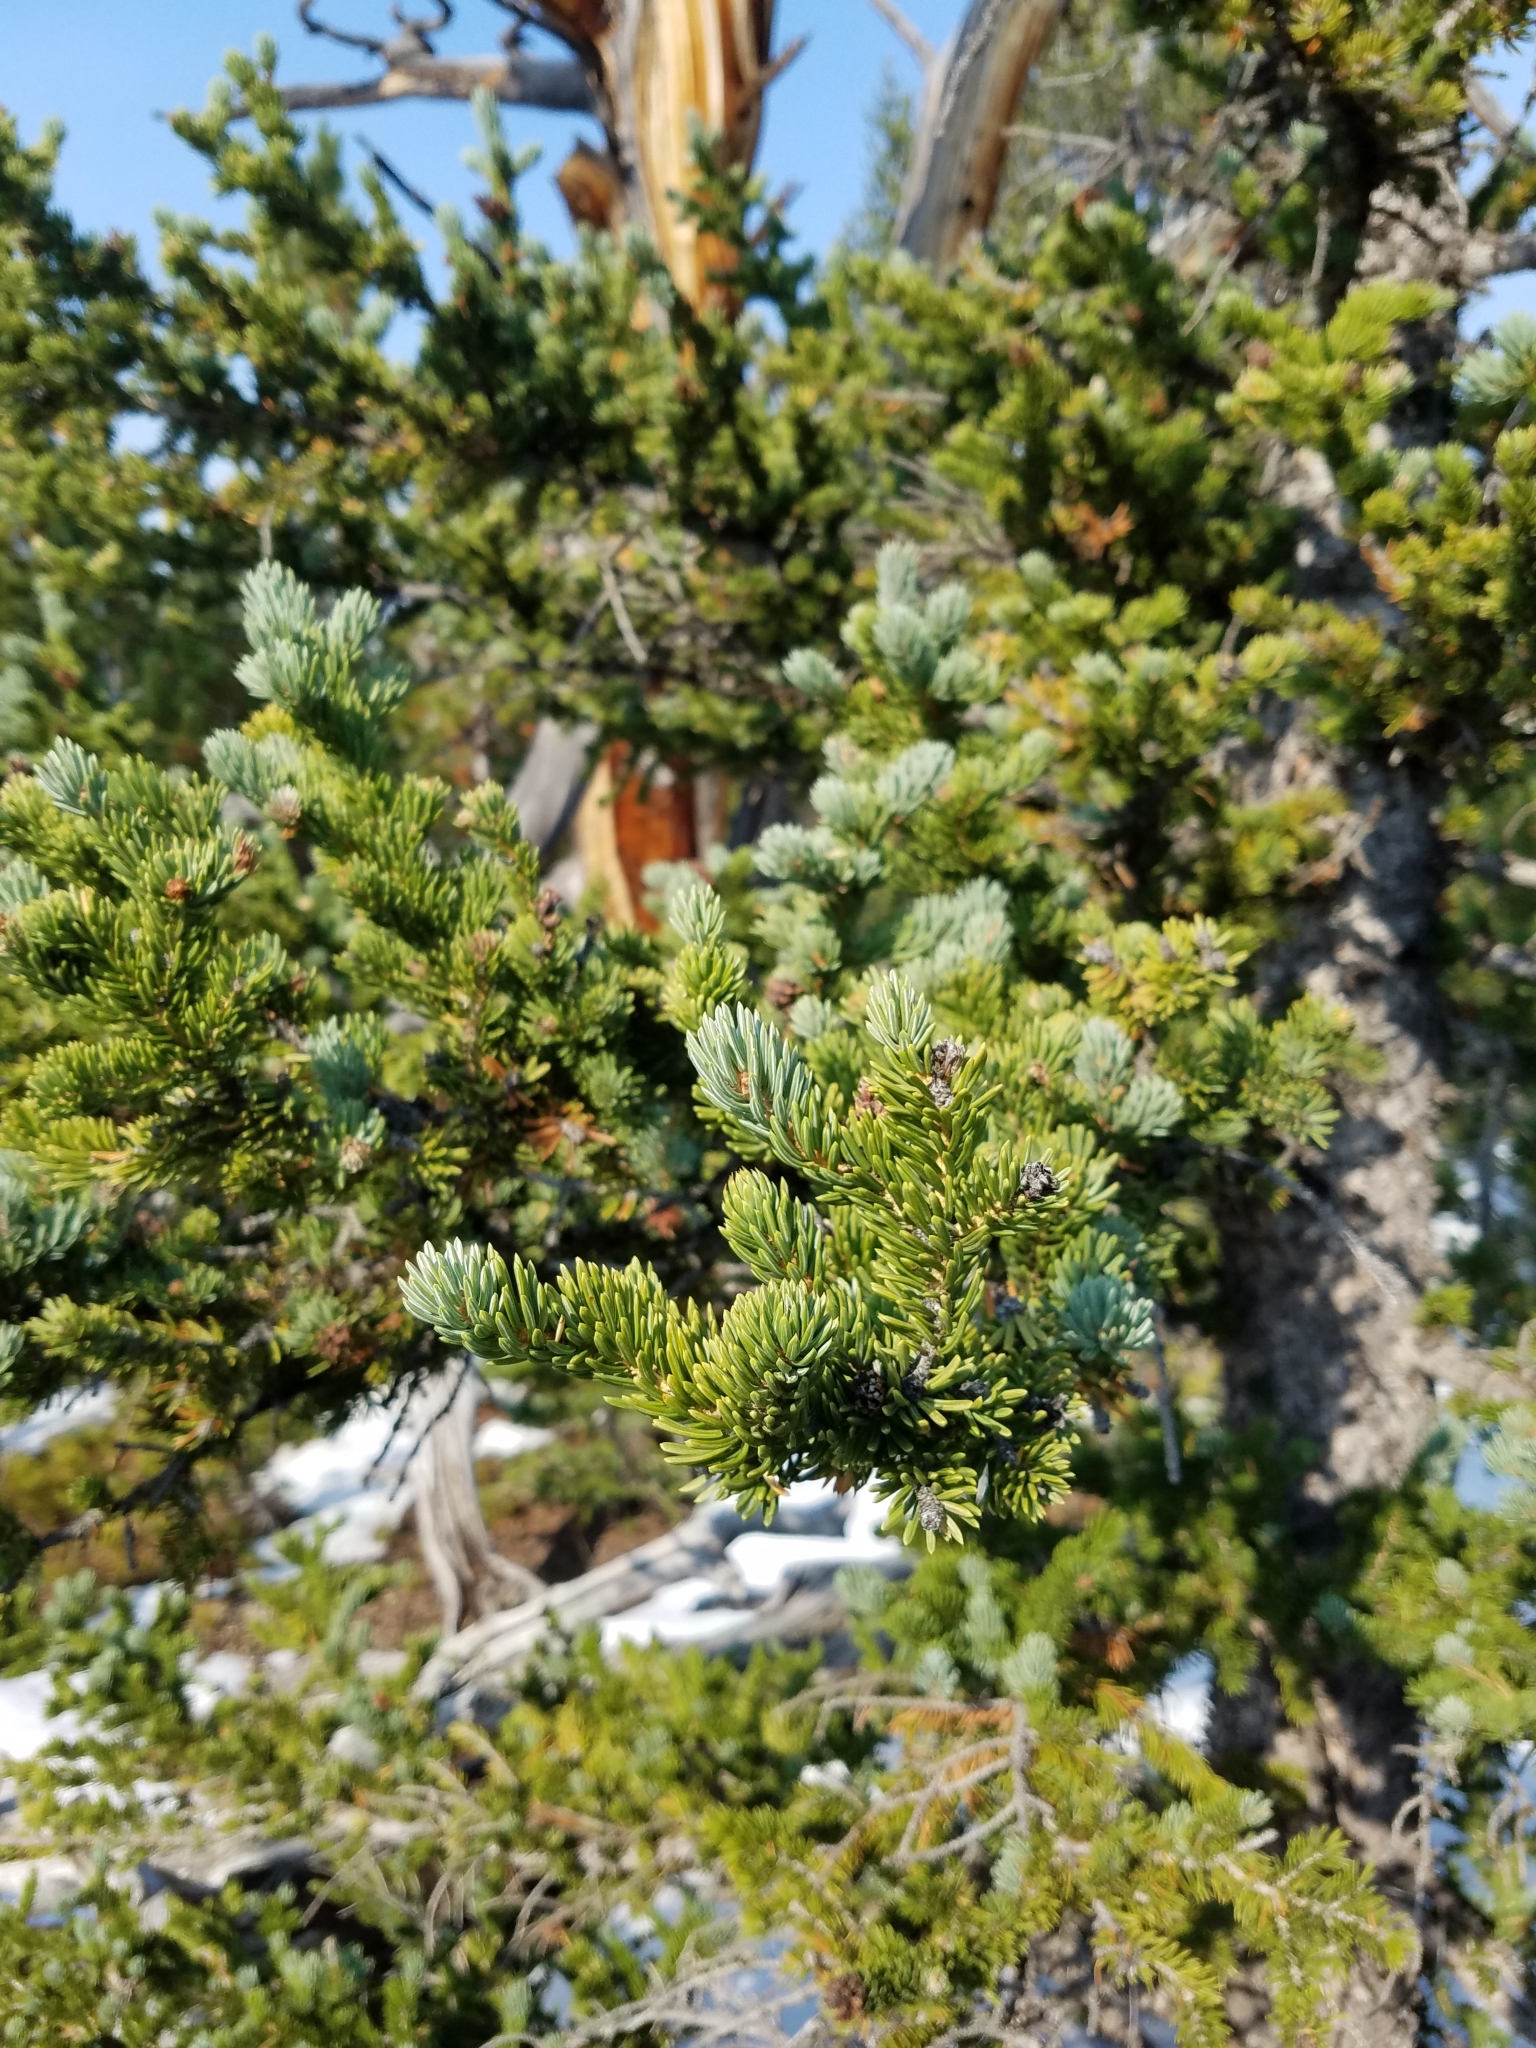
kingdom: Plantae
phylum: Tracheophyta
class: Pinopsida
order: Pinales
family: Pinaceae
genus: Abies
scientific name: Abies lasiocarpa
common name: Subalpine fir
